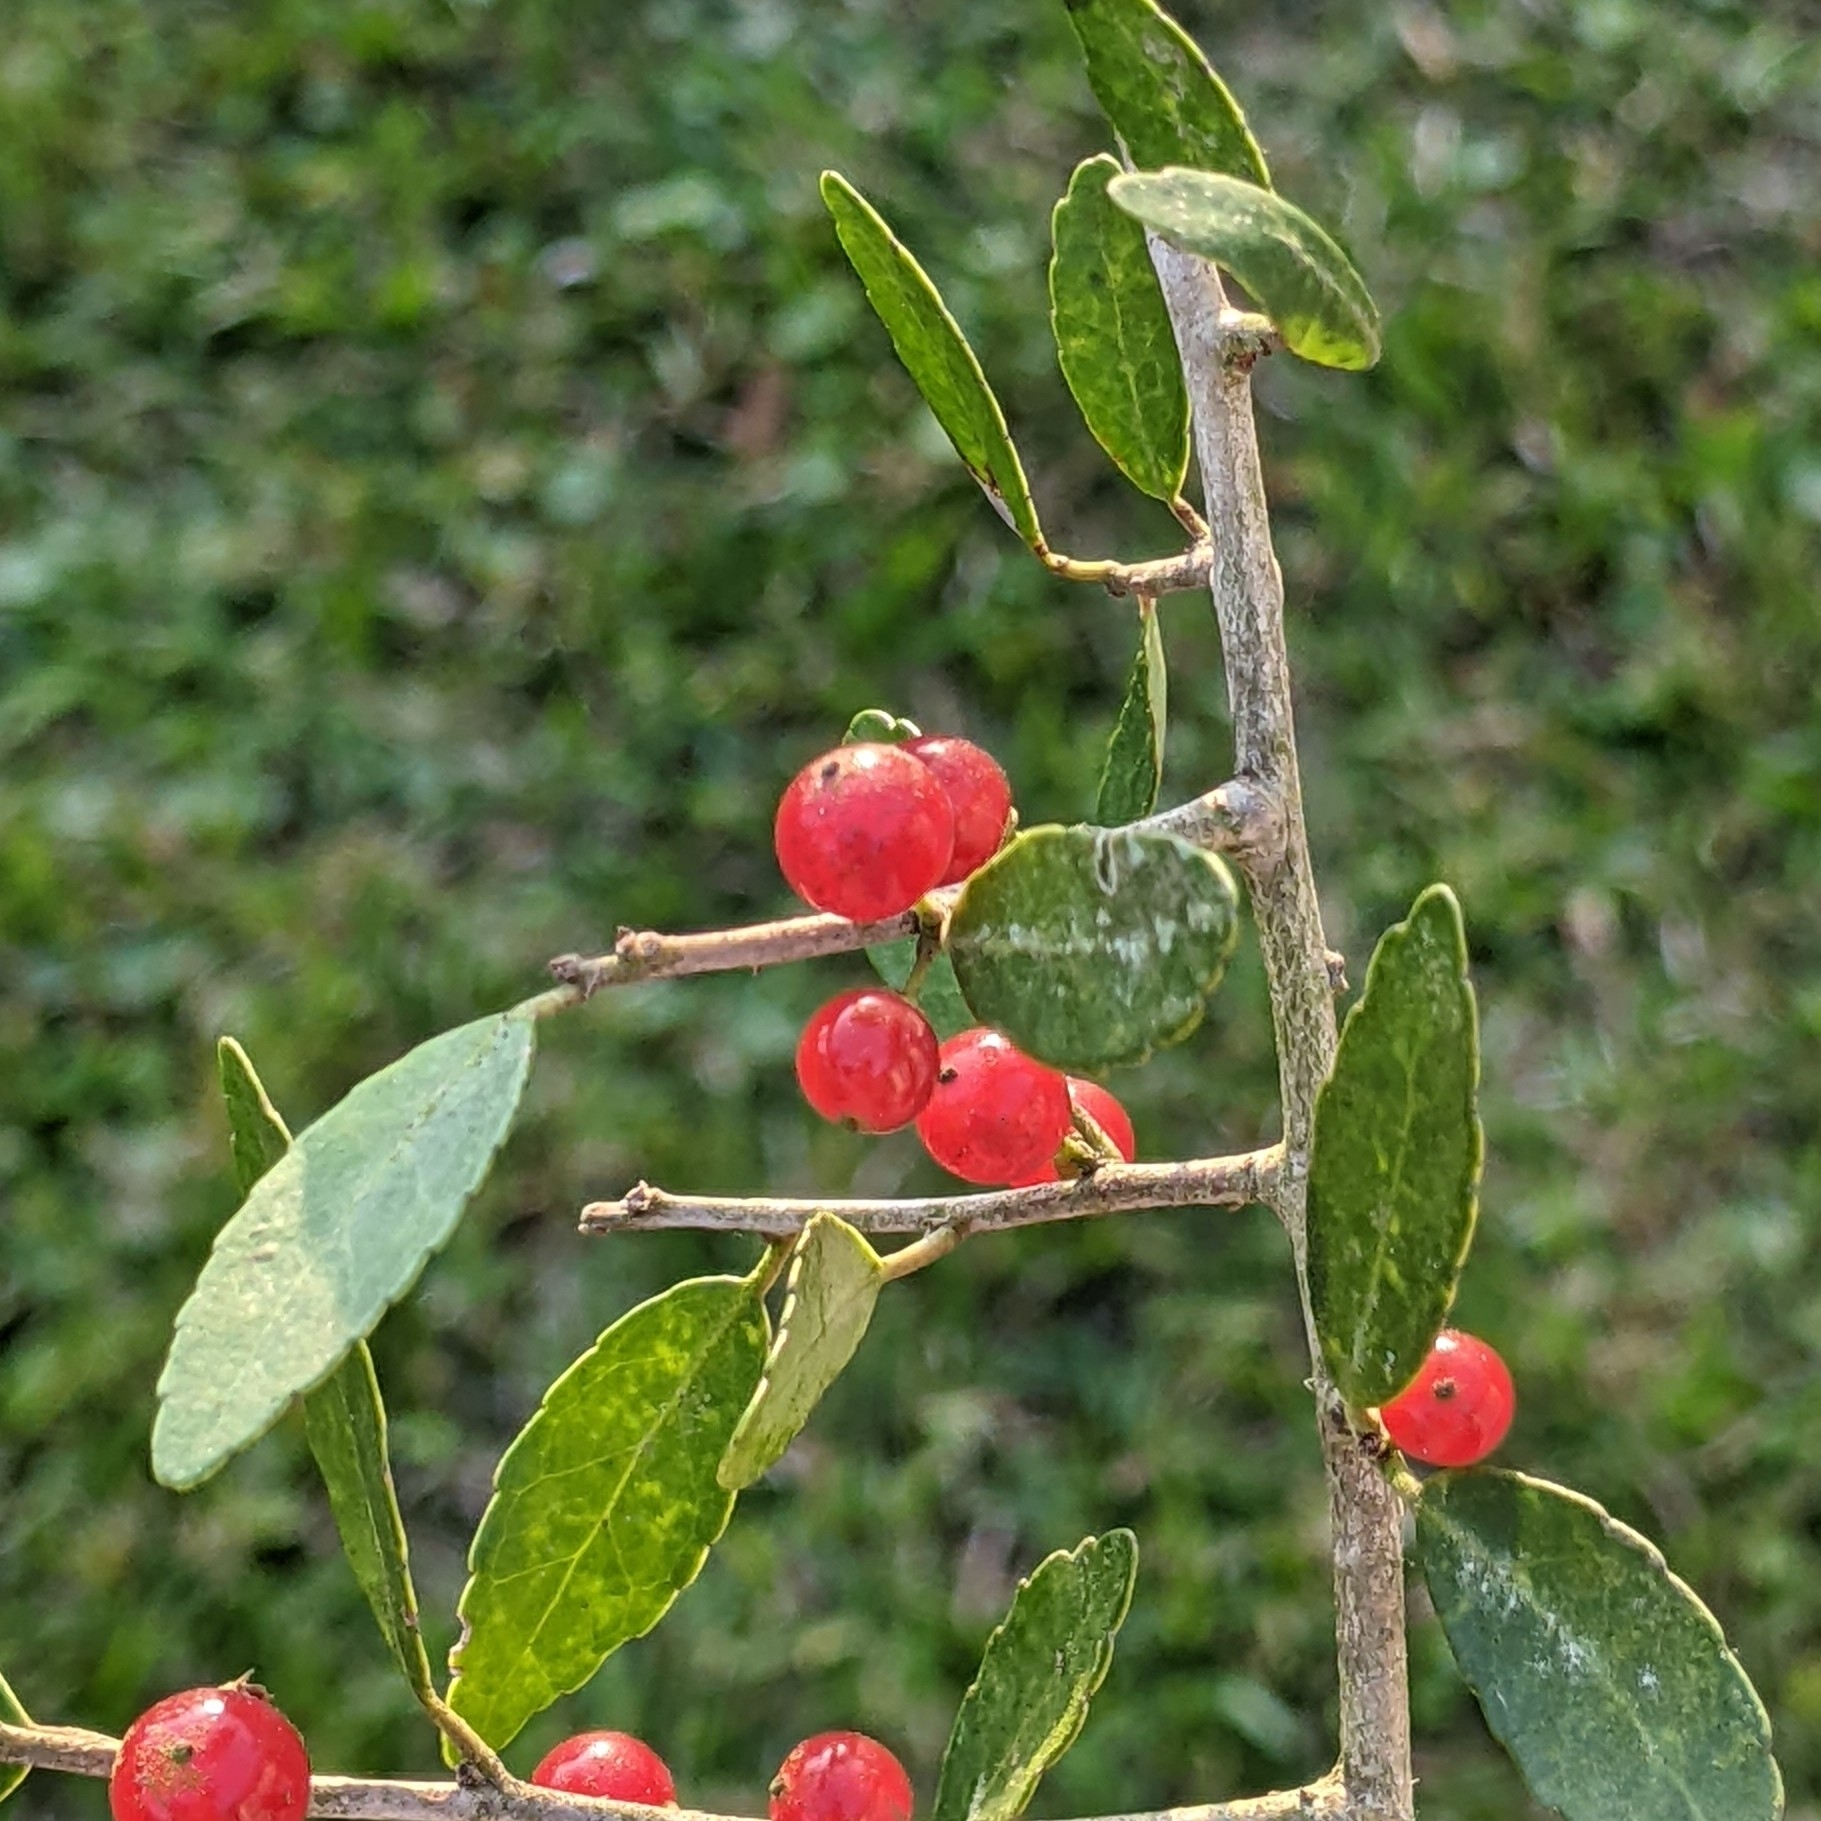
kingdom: Plantae
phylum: Tracheophyta
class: Magnoliopsida
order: Aquifoliales
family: Aquifoliaceae
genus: Ilex
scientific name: Ilex vomitoria
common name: Yaupon holly
